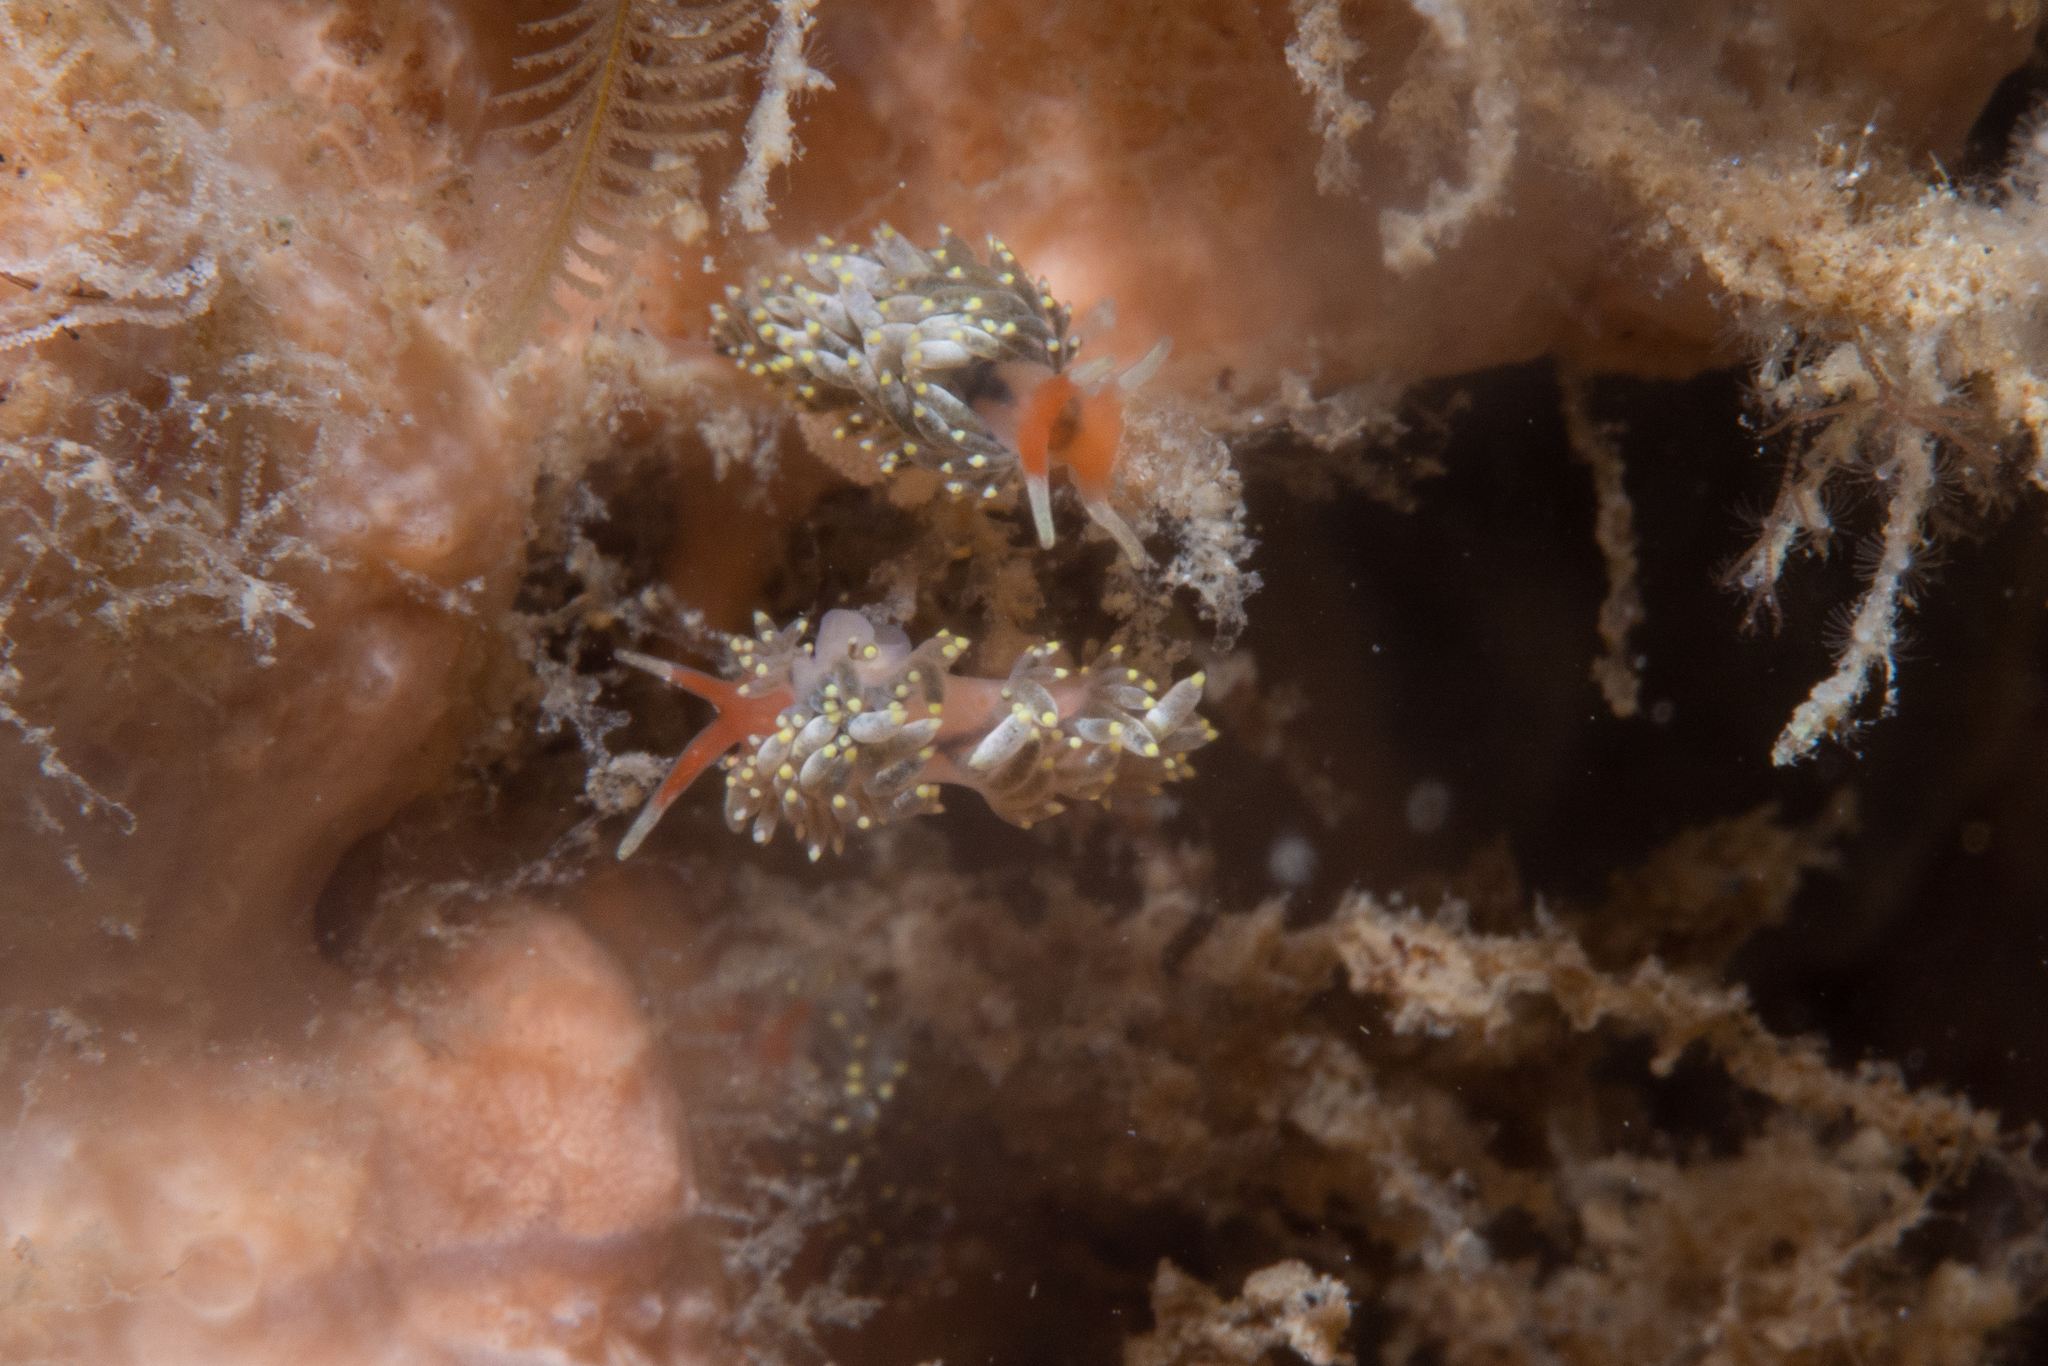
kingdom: Animalia
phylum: Mollusca
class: Gastropoda
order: Nudibranchia
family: Trinchesiidae
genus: Trinchesia
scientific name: Trinchesia catachroma
